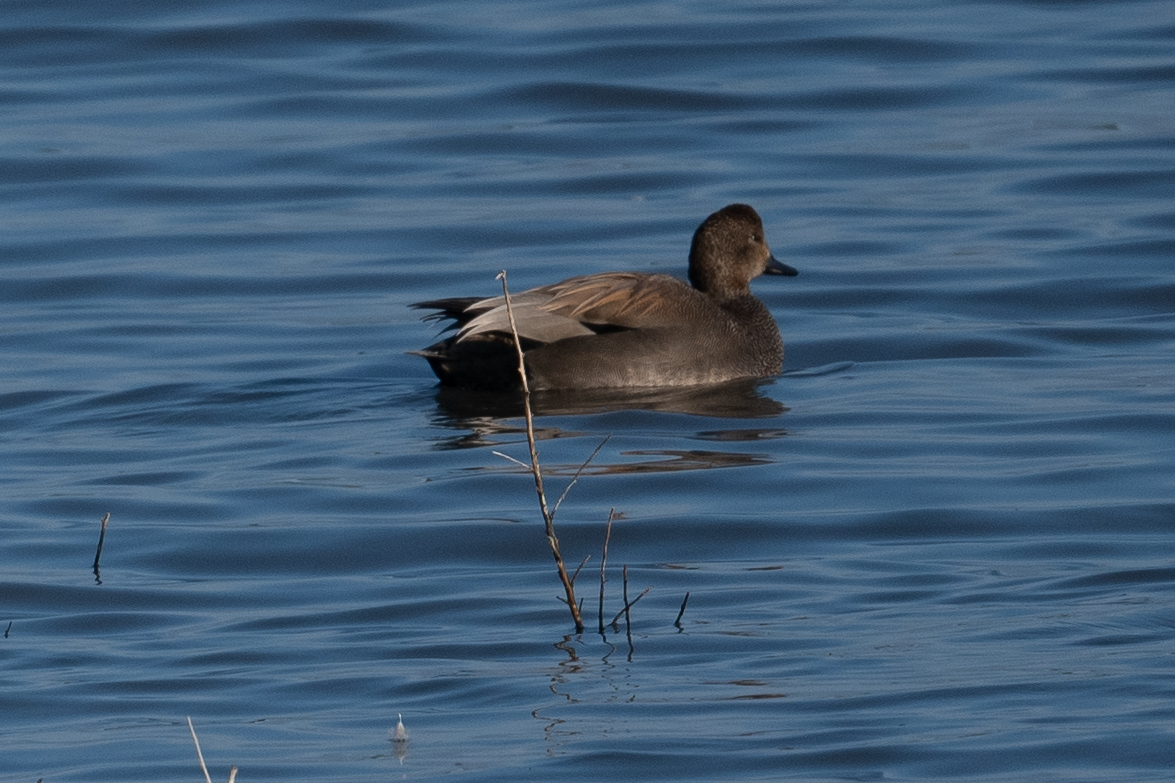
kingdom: Animalia
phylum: Chordata
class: Aves
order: Anseriformes
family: Anatidae
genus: Mareca
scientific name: Mareca strepera
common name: Gadwall
